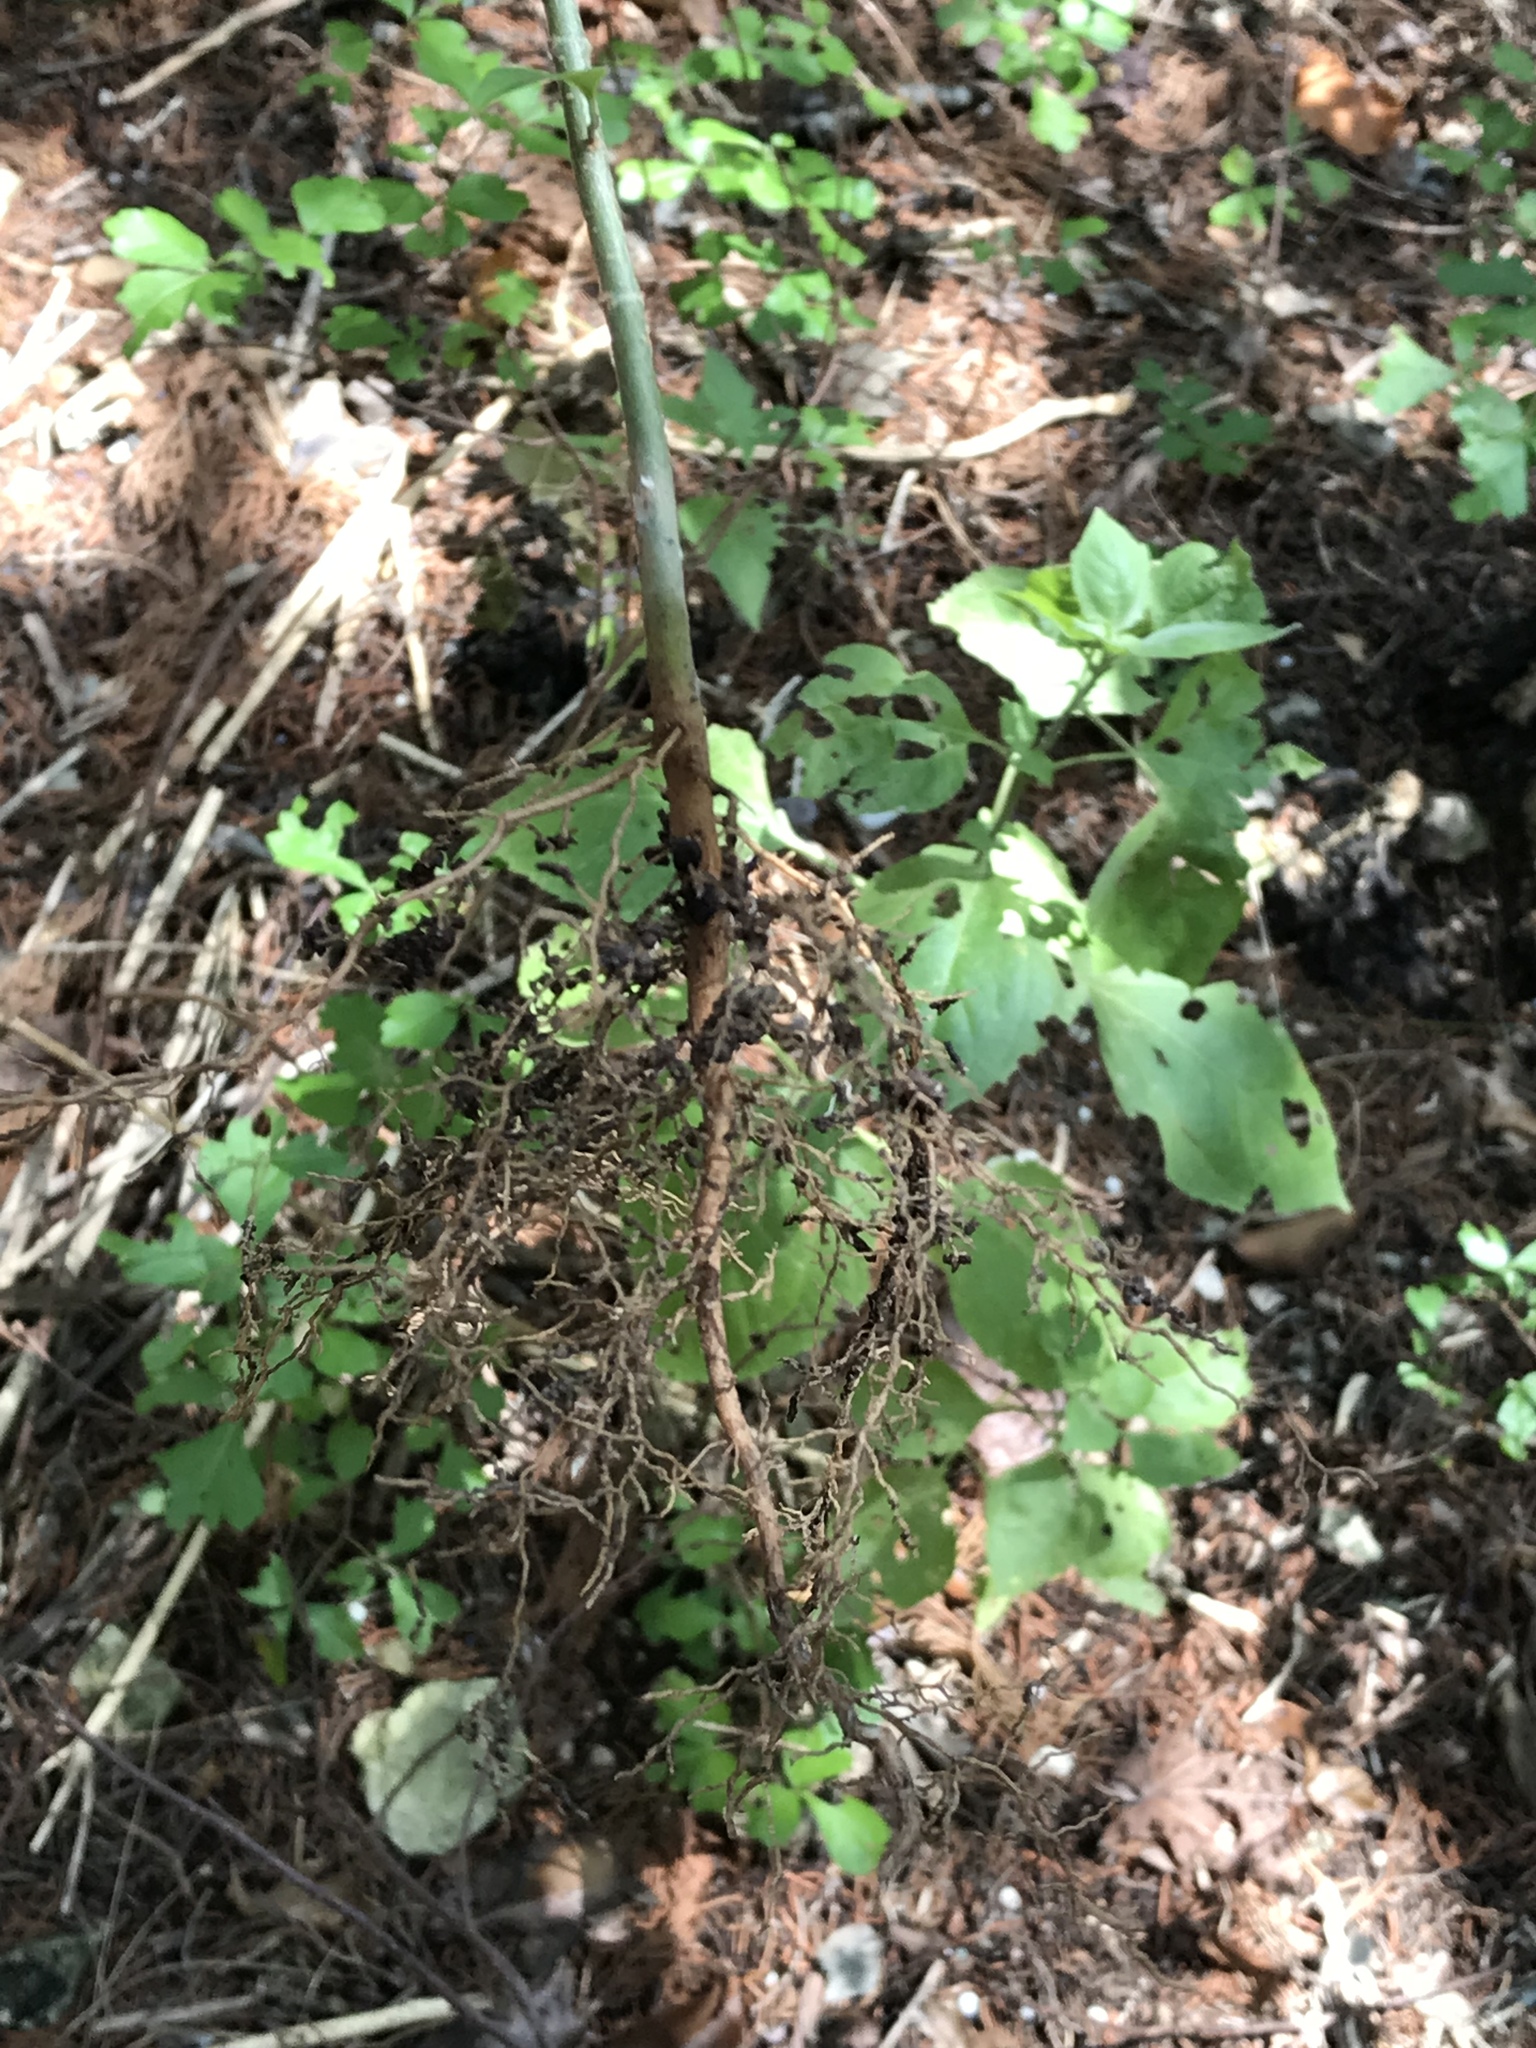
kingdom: Plantae
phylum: Tracheophyta
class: Magnoliopsida
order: Lamiales
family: Oleaceae
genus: Ligustrum
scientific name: Ligustrum lucidum
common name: Glossy privet
